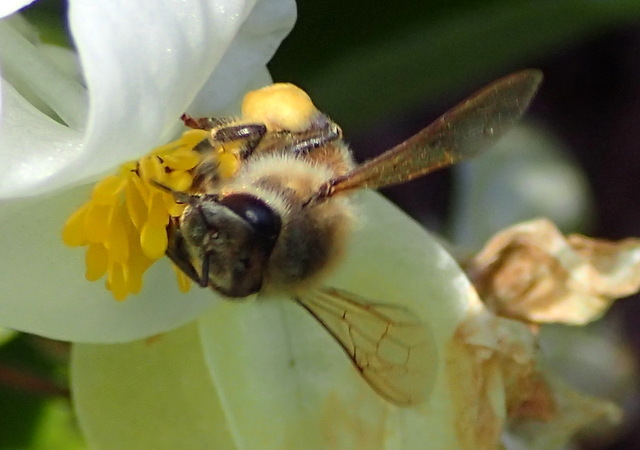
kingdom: Animalia
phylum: Arthropoda
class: Insecta
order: Hymenoptera
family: Apidae
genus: Apis
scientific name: Apis mellifera
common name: Honey bee
